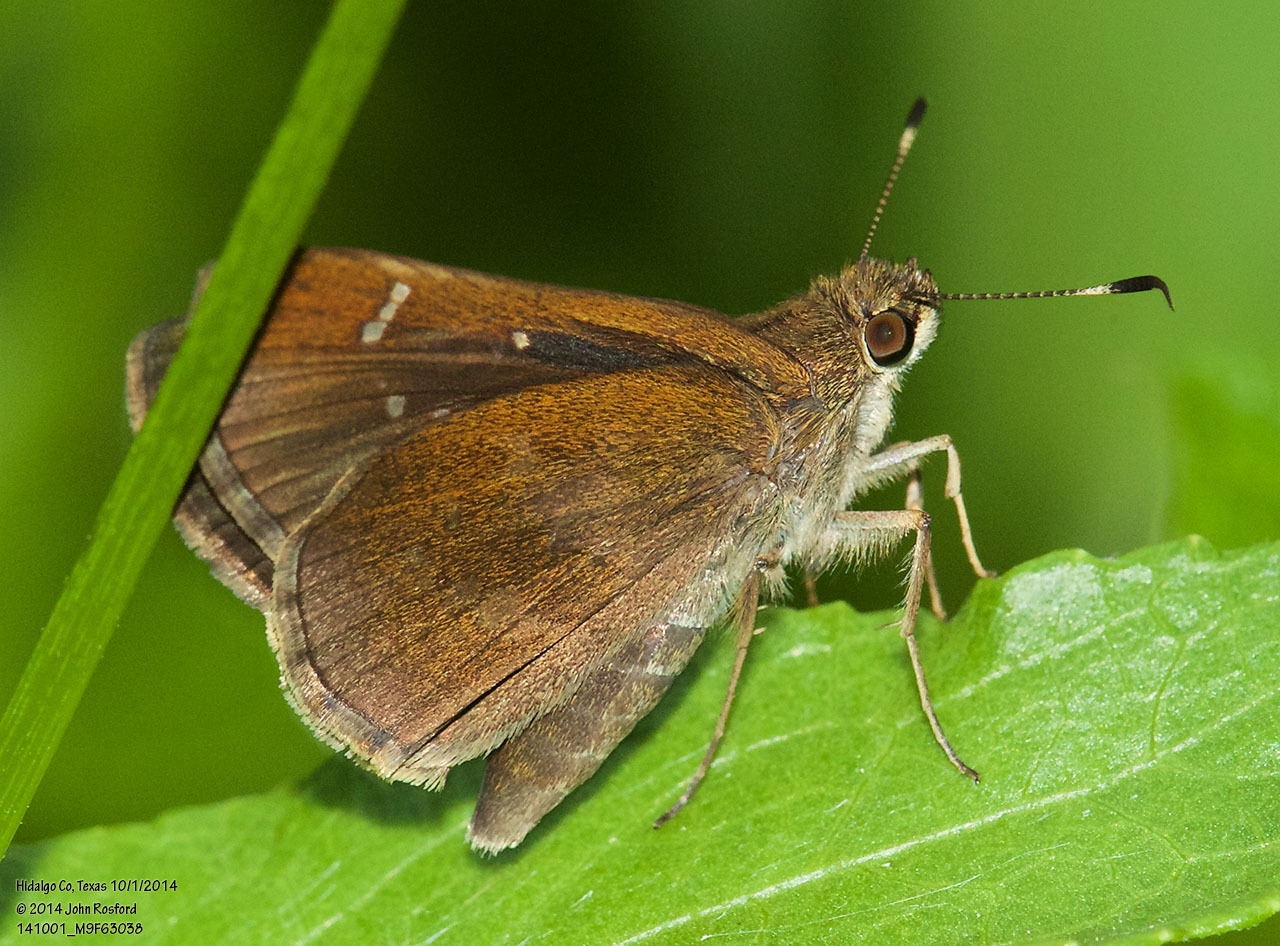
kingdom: Animalia
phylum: Arthropoda
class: Insecta
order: Lepidoptera
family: Hesperiidae
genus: Lerema
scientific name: Lerema accius
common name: Clouded skipper
